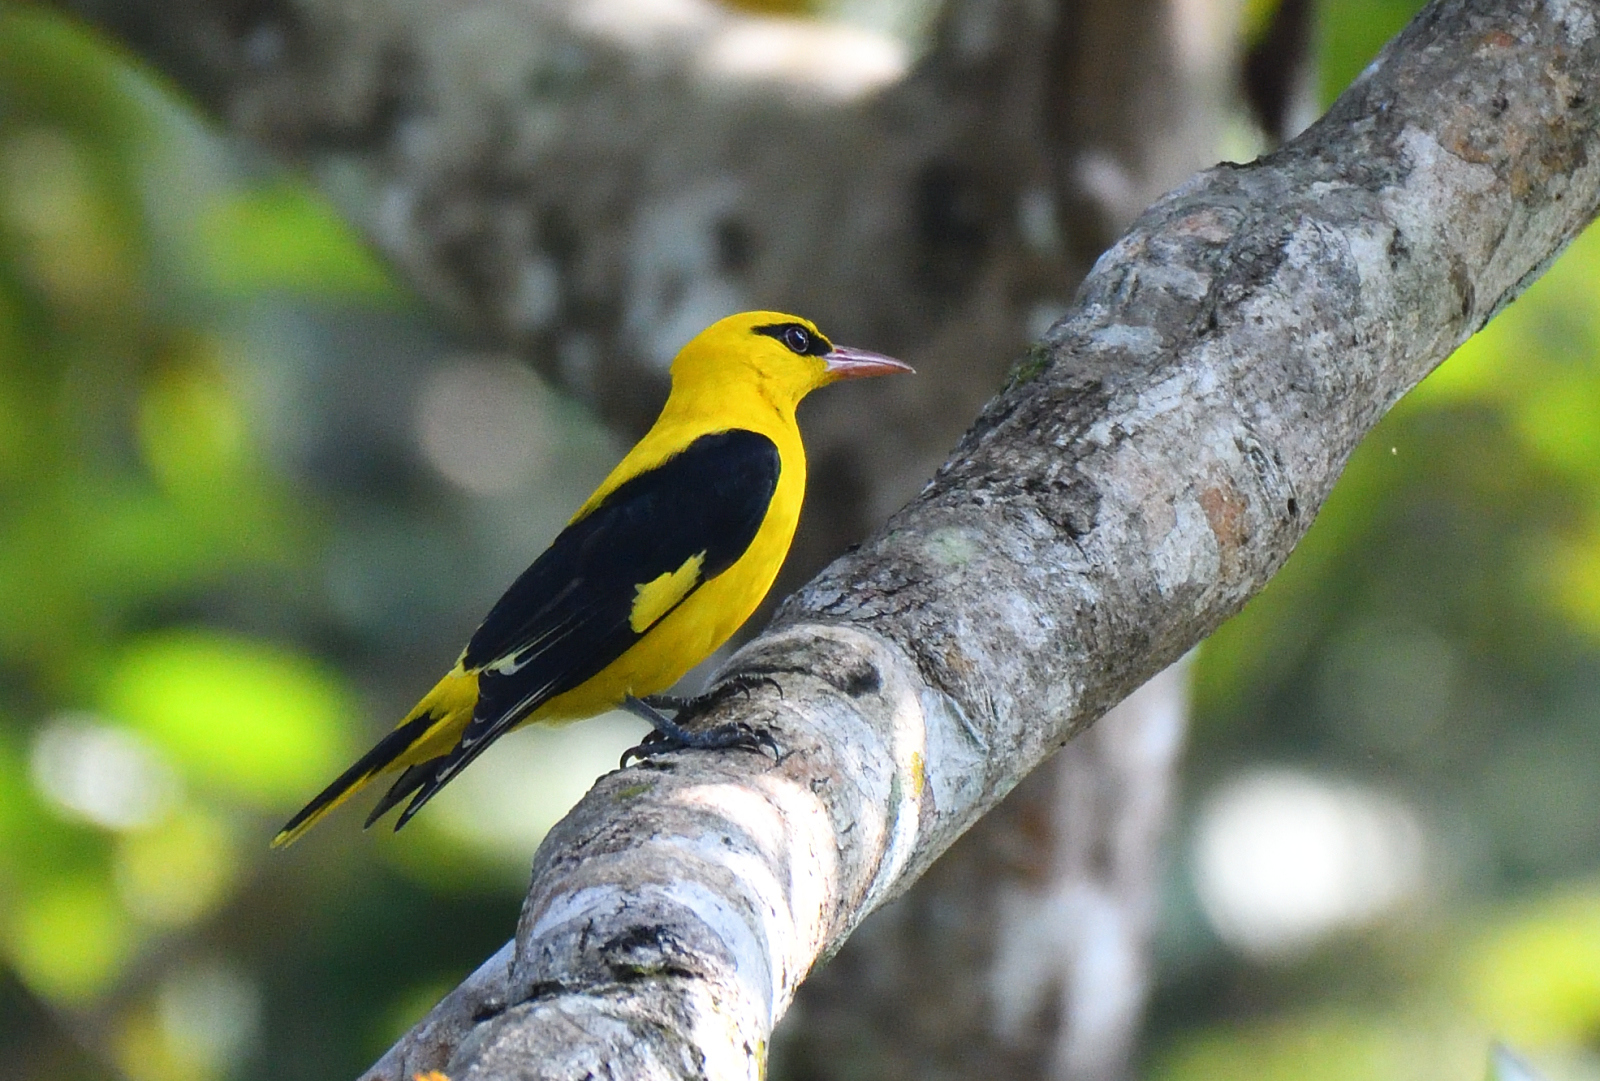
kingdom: Animalia
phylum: Chordata
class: Aves
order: Passeriformes
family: Oriolidae
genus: Oriolus
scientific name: Oriolus kundoo
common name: Indian golden oriole
